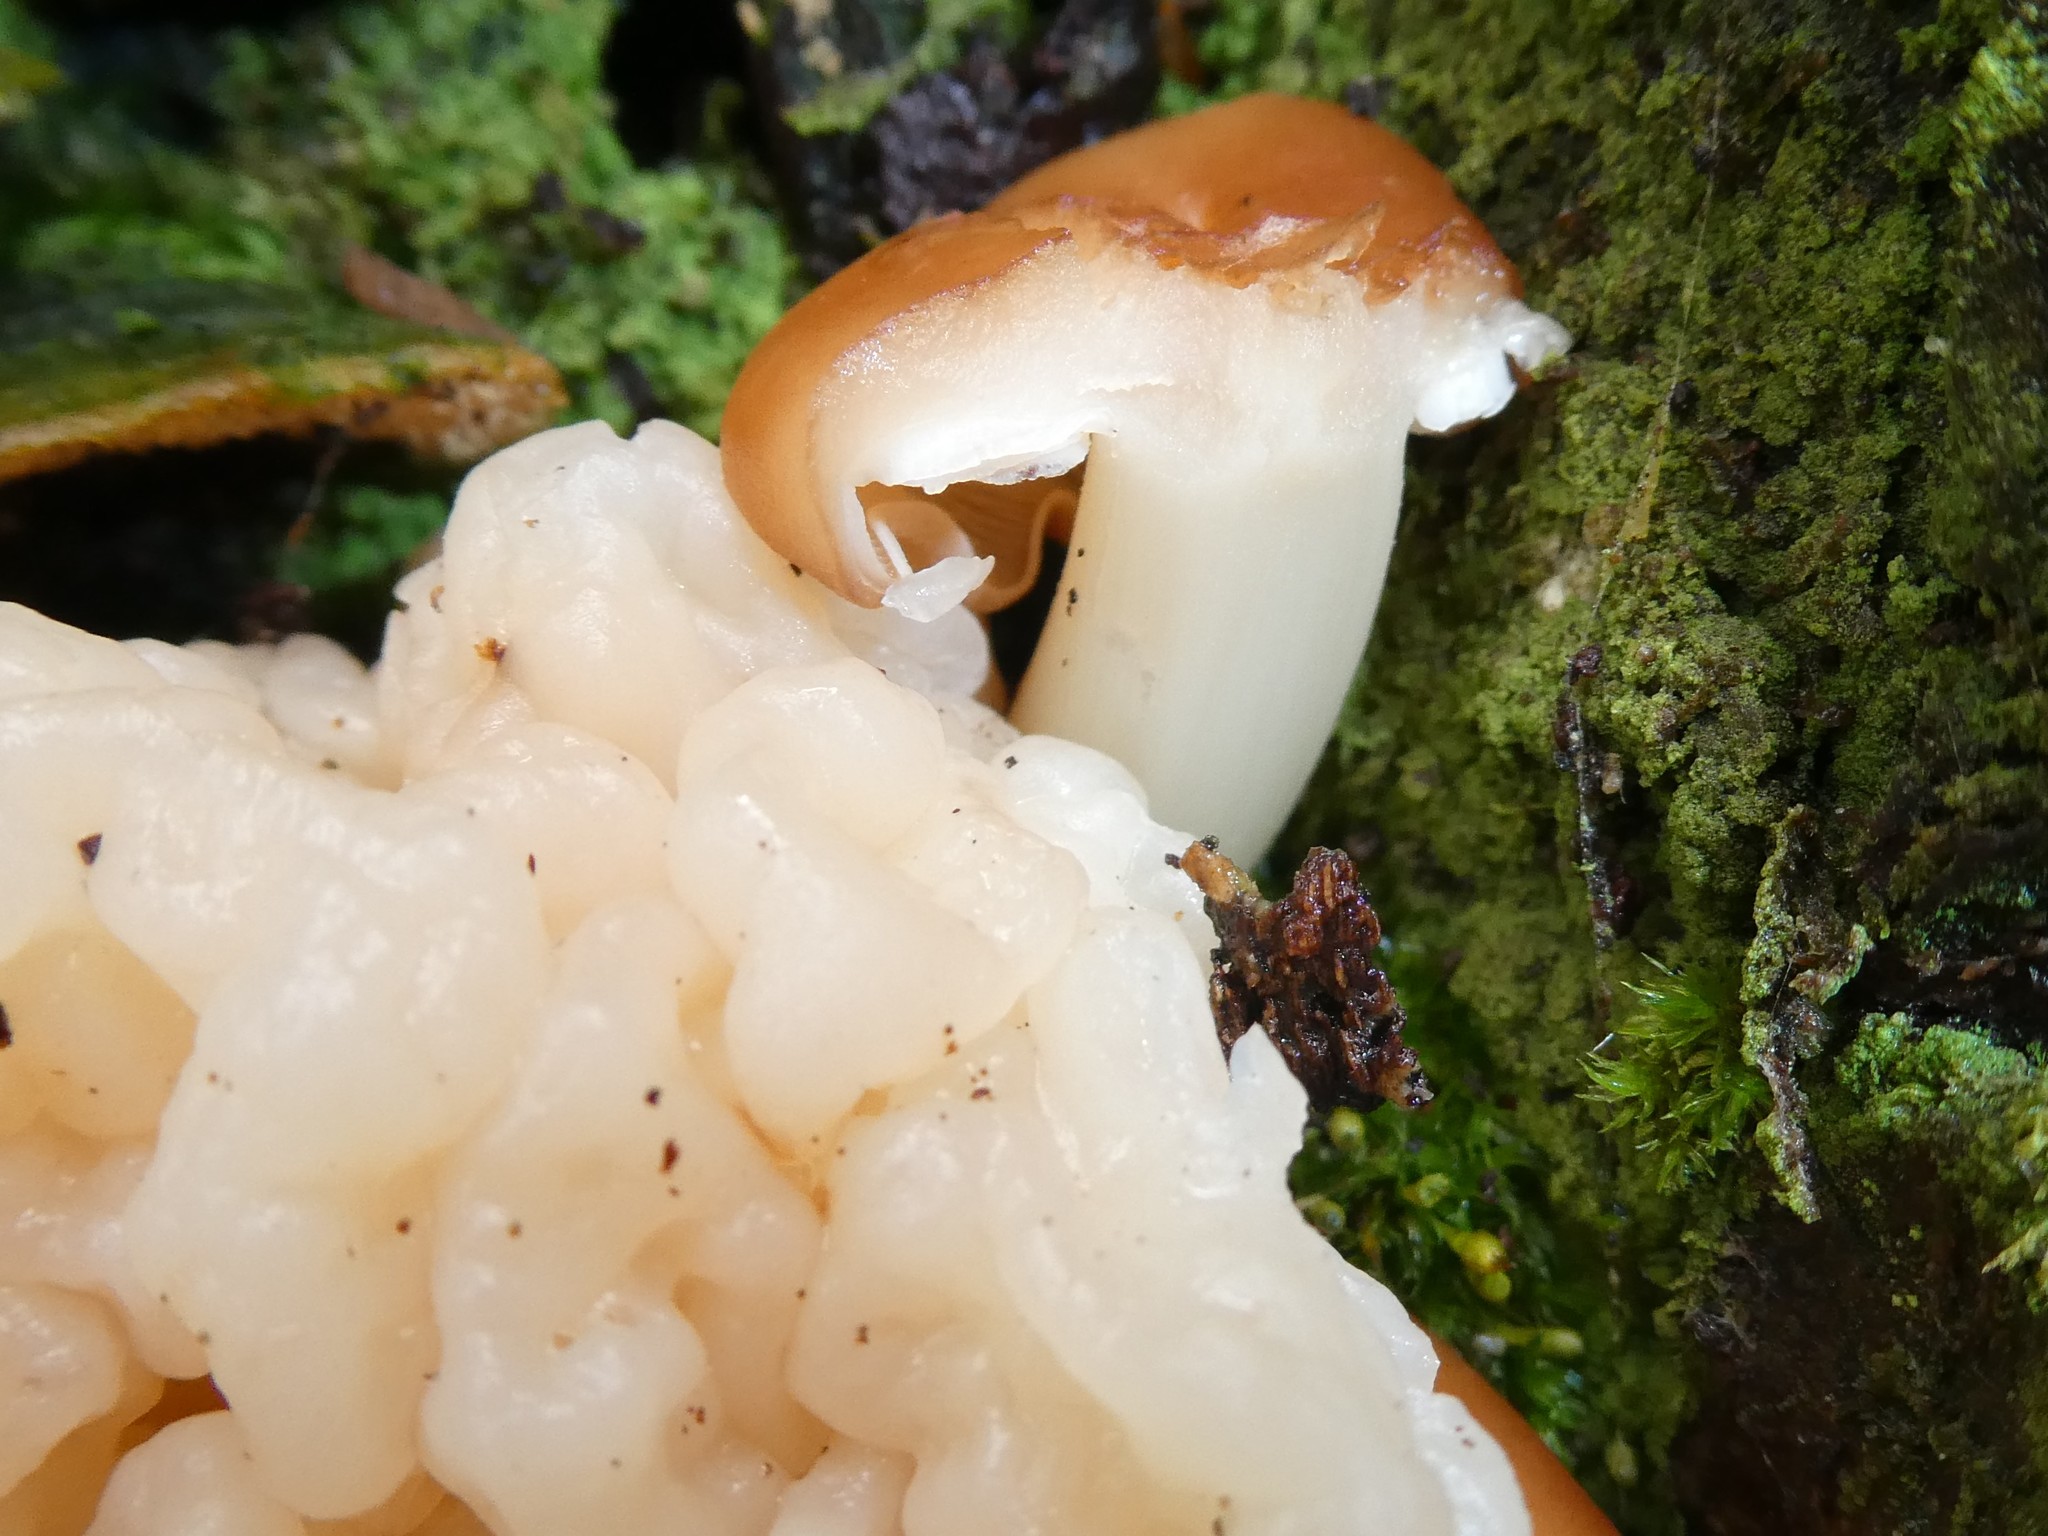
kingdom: Fungi
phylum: Basidiomycota
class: Tremellomycetes
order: Filobasidiales
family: Filobasidiaceae
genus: Syzygospora
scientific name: Syzygospora mycetophila
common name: Collybia clouds
